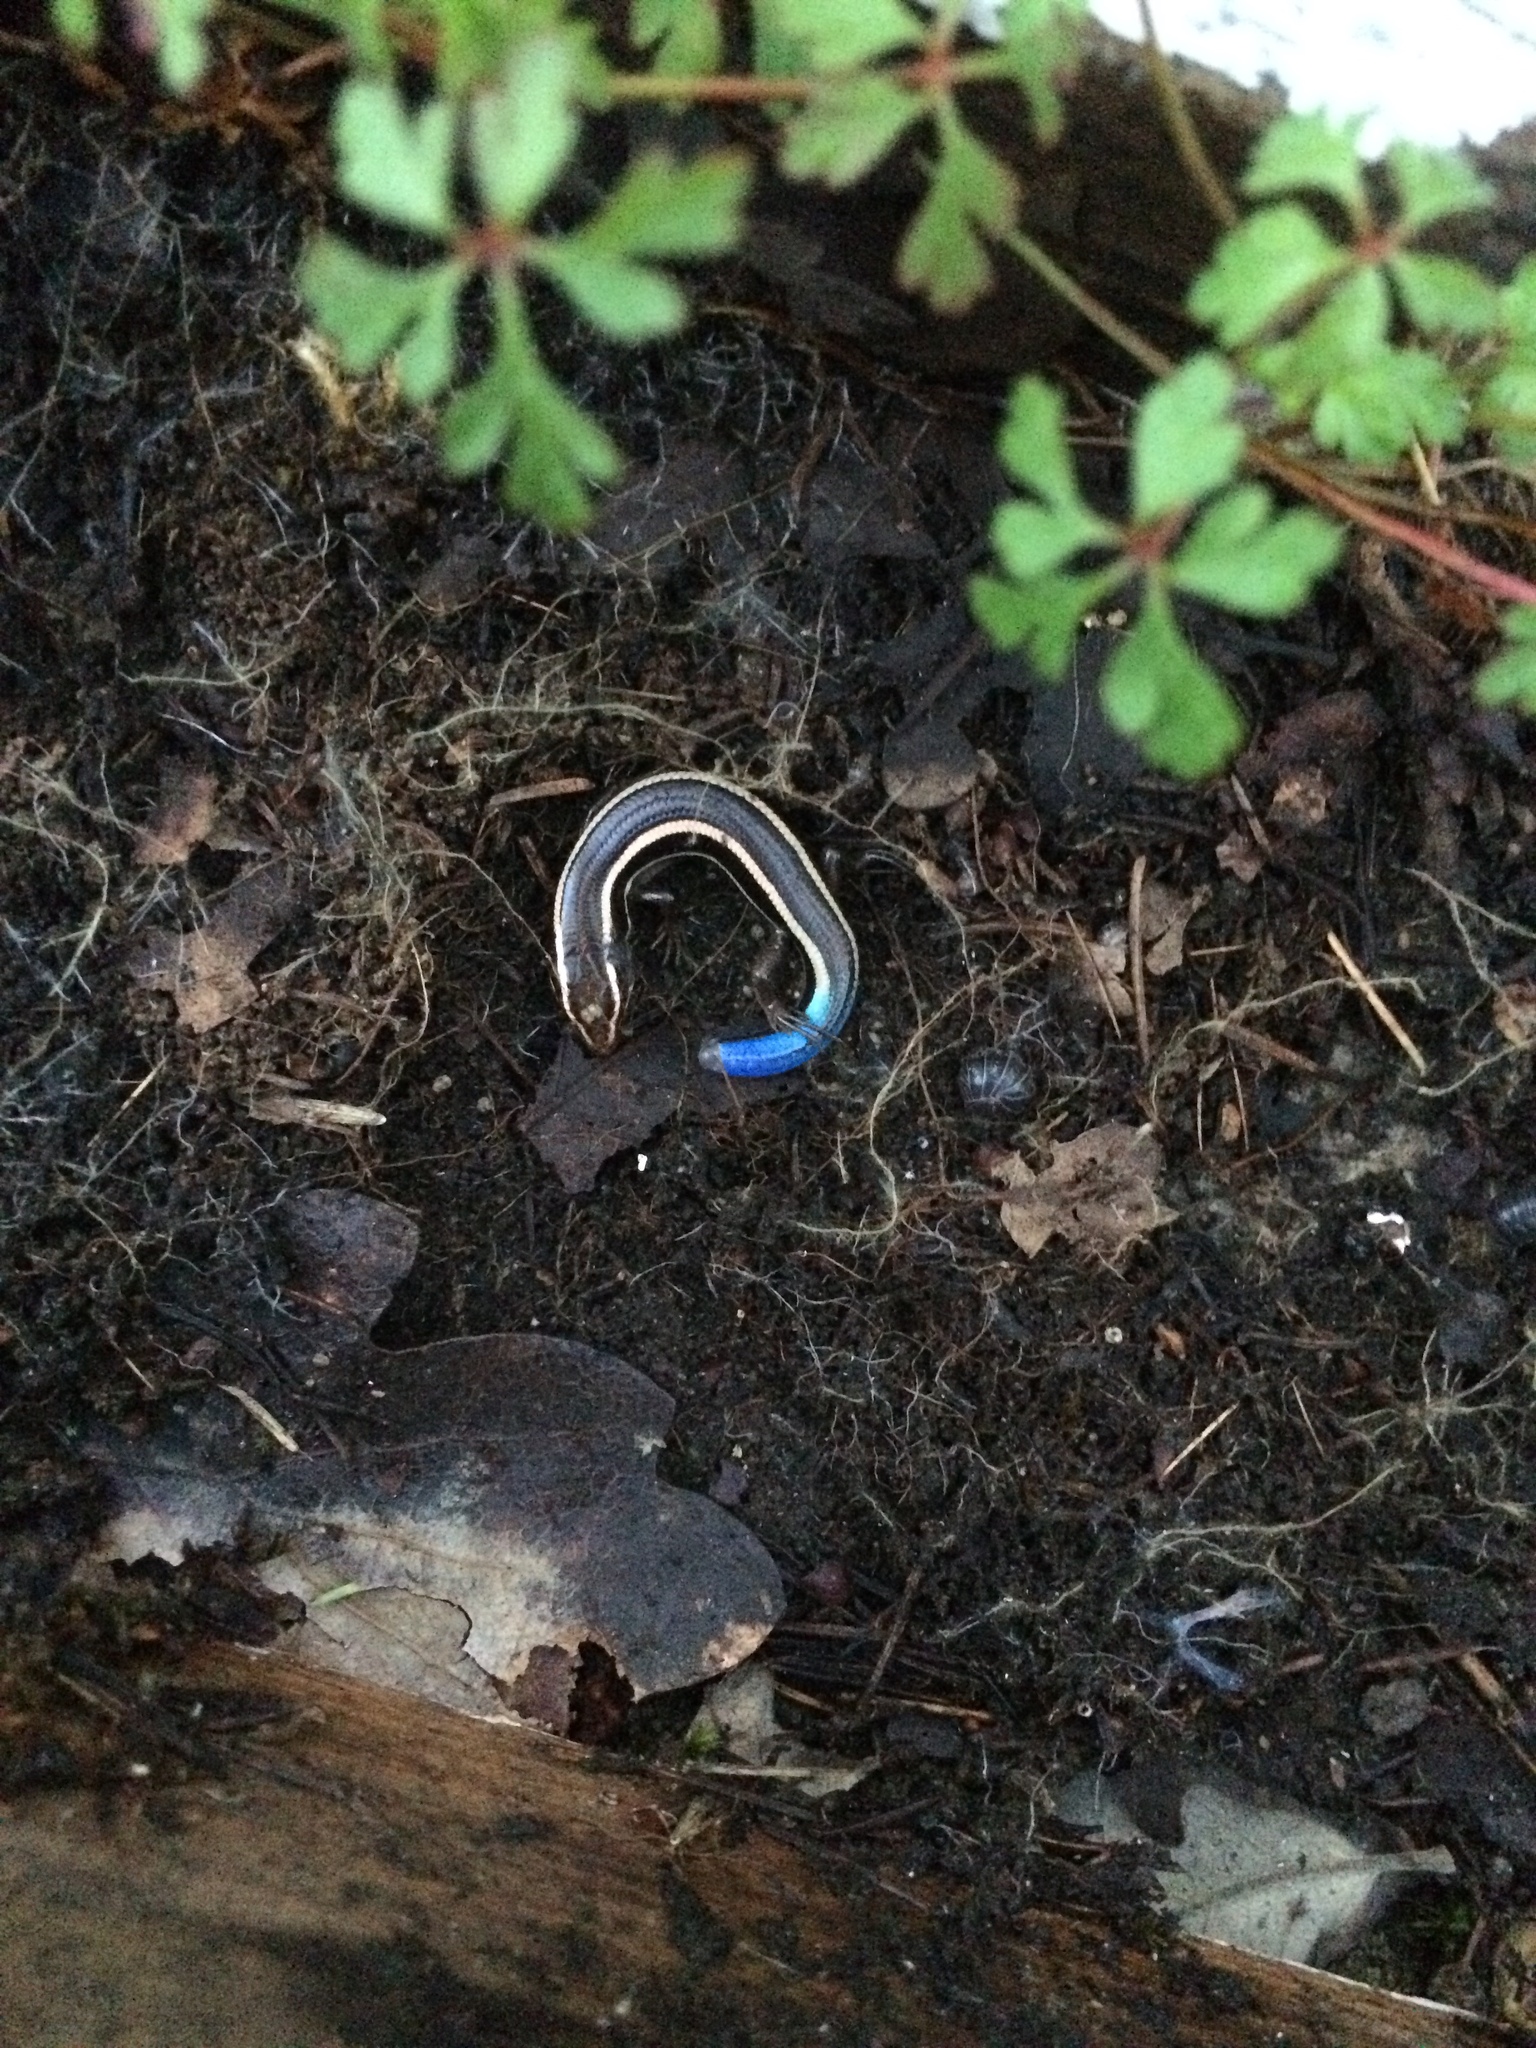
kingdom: Animalia
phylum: Chordata
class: Squamata
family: Scincidae
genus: Plestiodon
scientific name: Plestiodon skiltonianus
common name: Coronado island skink [interparietalis]
